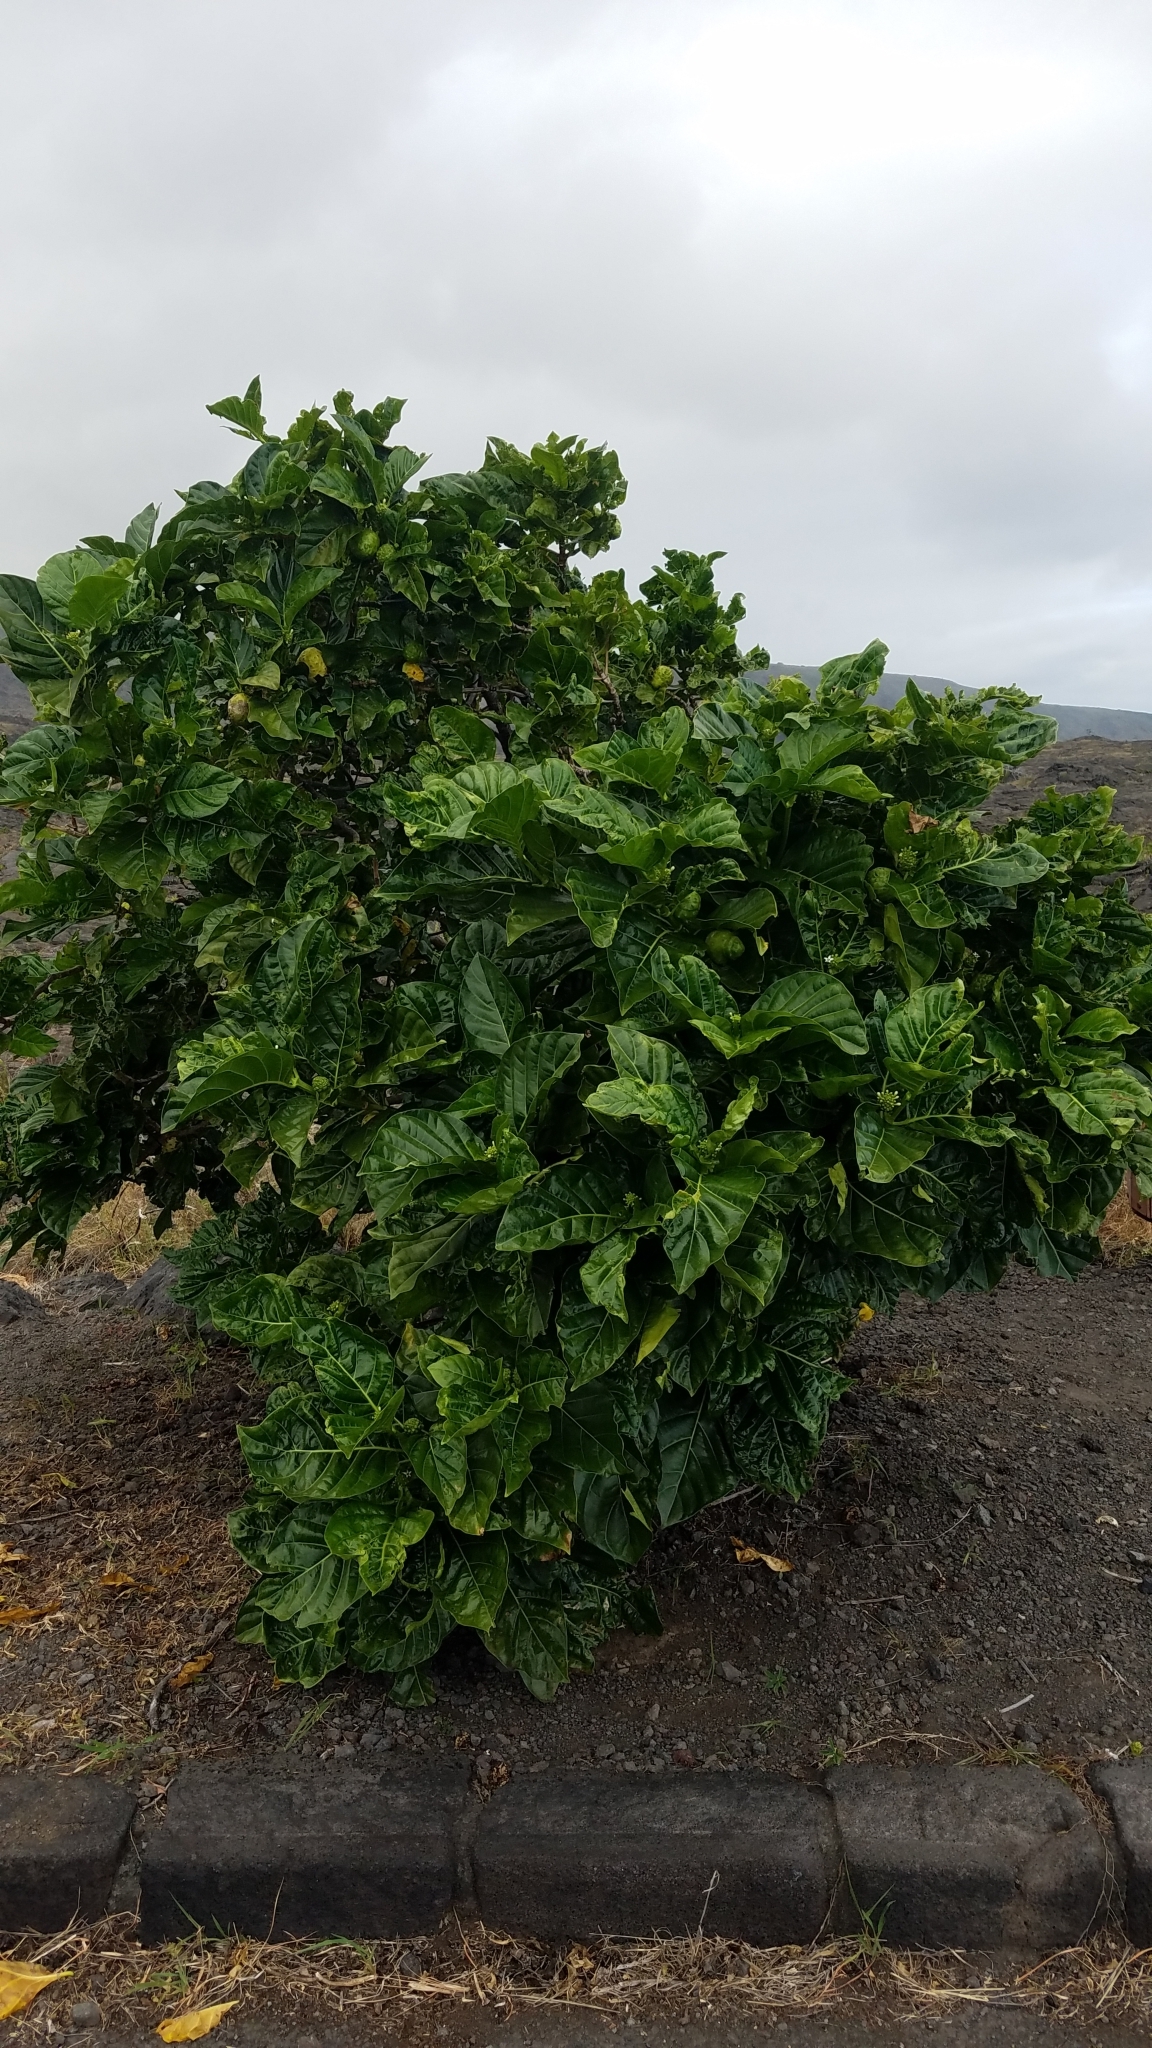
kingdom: Plantae
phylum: Tracheophyta
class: Magnoliopsida
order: Gentianales
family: Rubiaceae
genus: Morinda
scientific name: Morinda citrifolia
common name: Indian-mulberry
